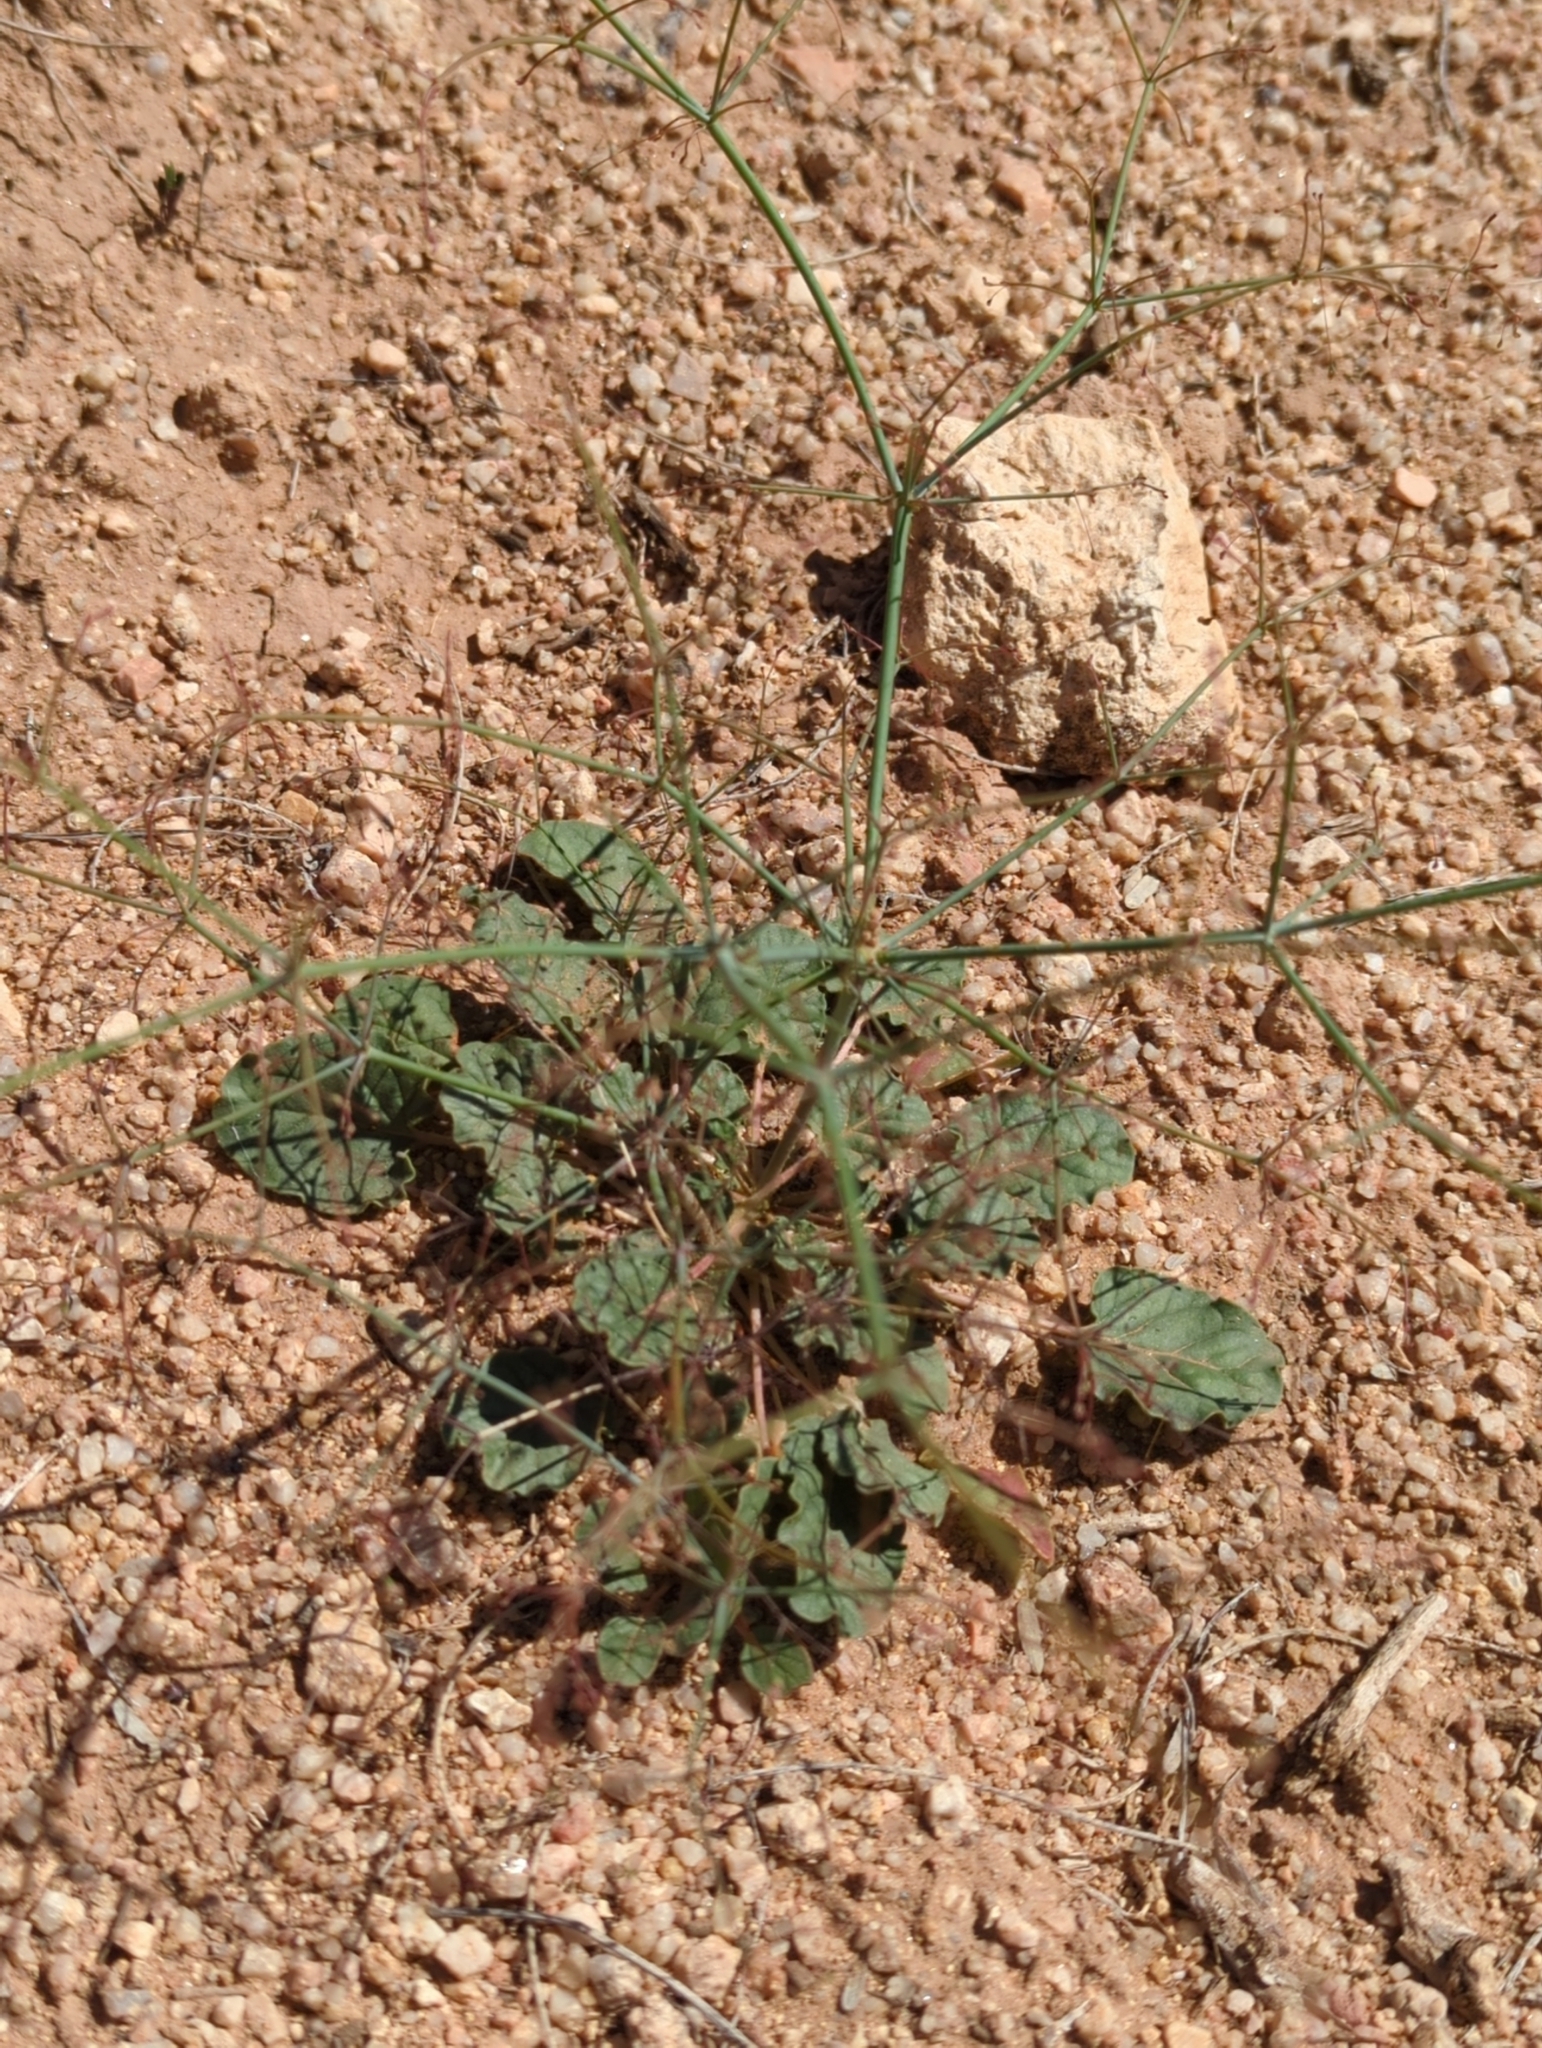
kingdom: Plantae
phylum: Tracheophyta
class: Magnoliopsida
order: Caryophyllales
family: Polygonaceae
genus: Eriogonum
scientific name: Eriogonum trichopes
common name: Little desert trumpet
